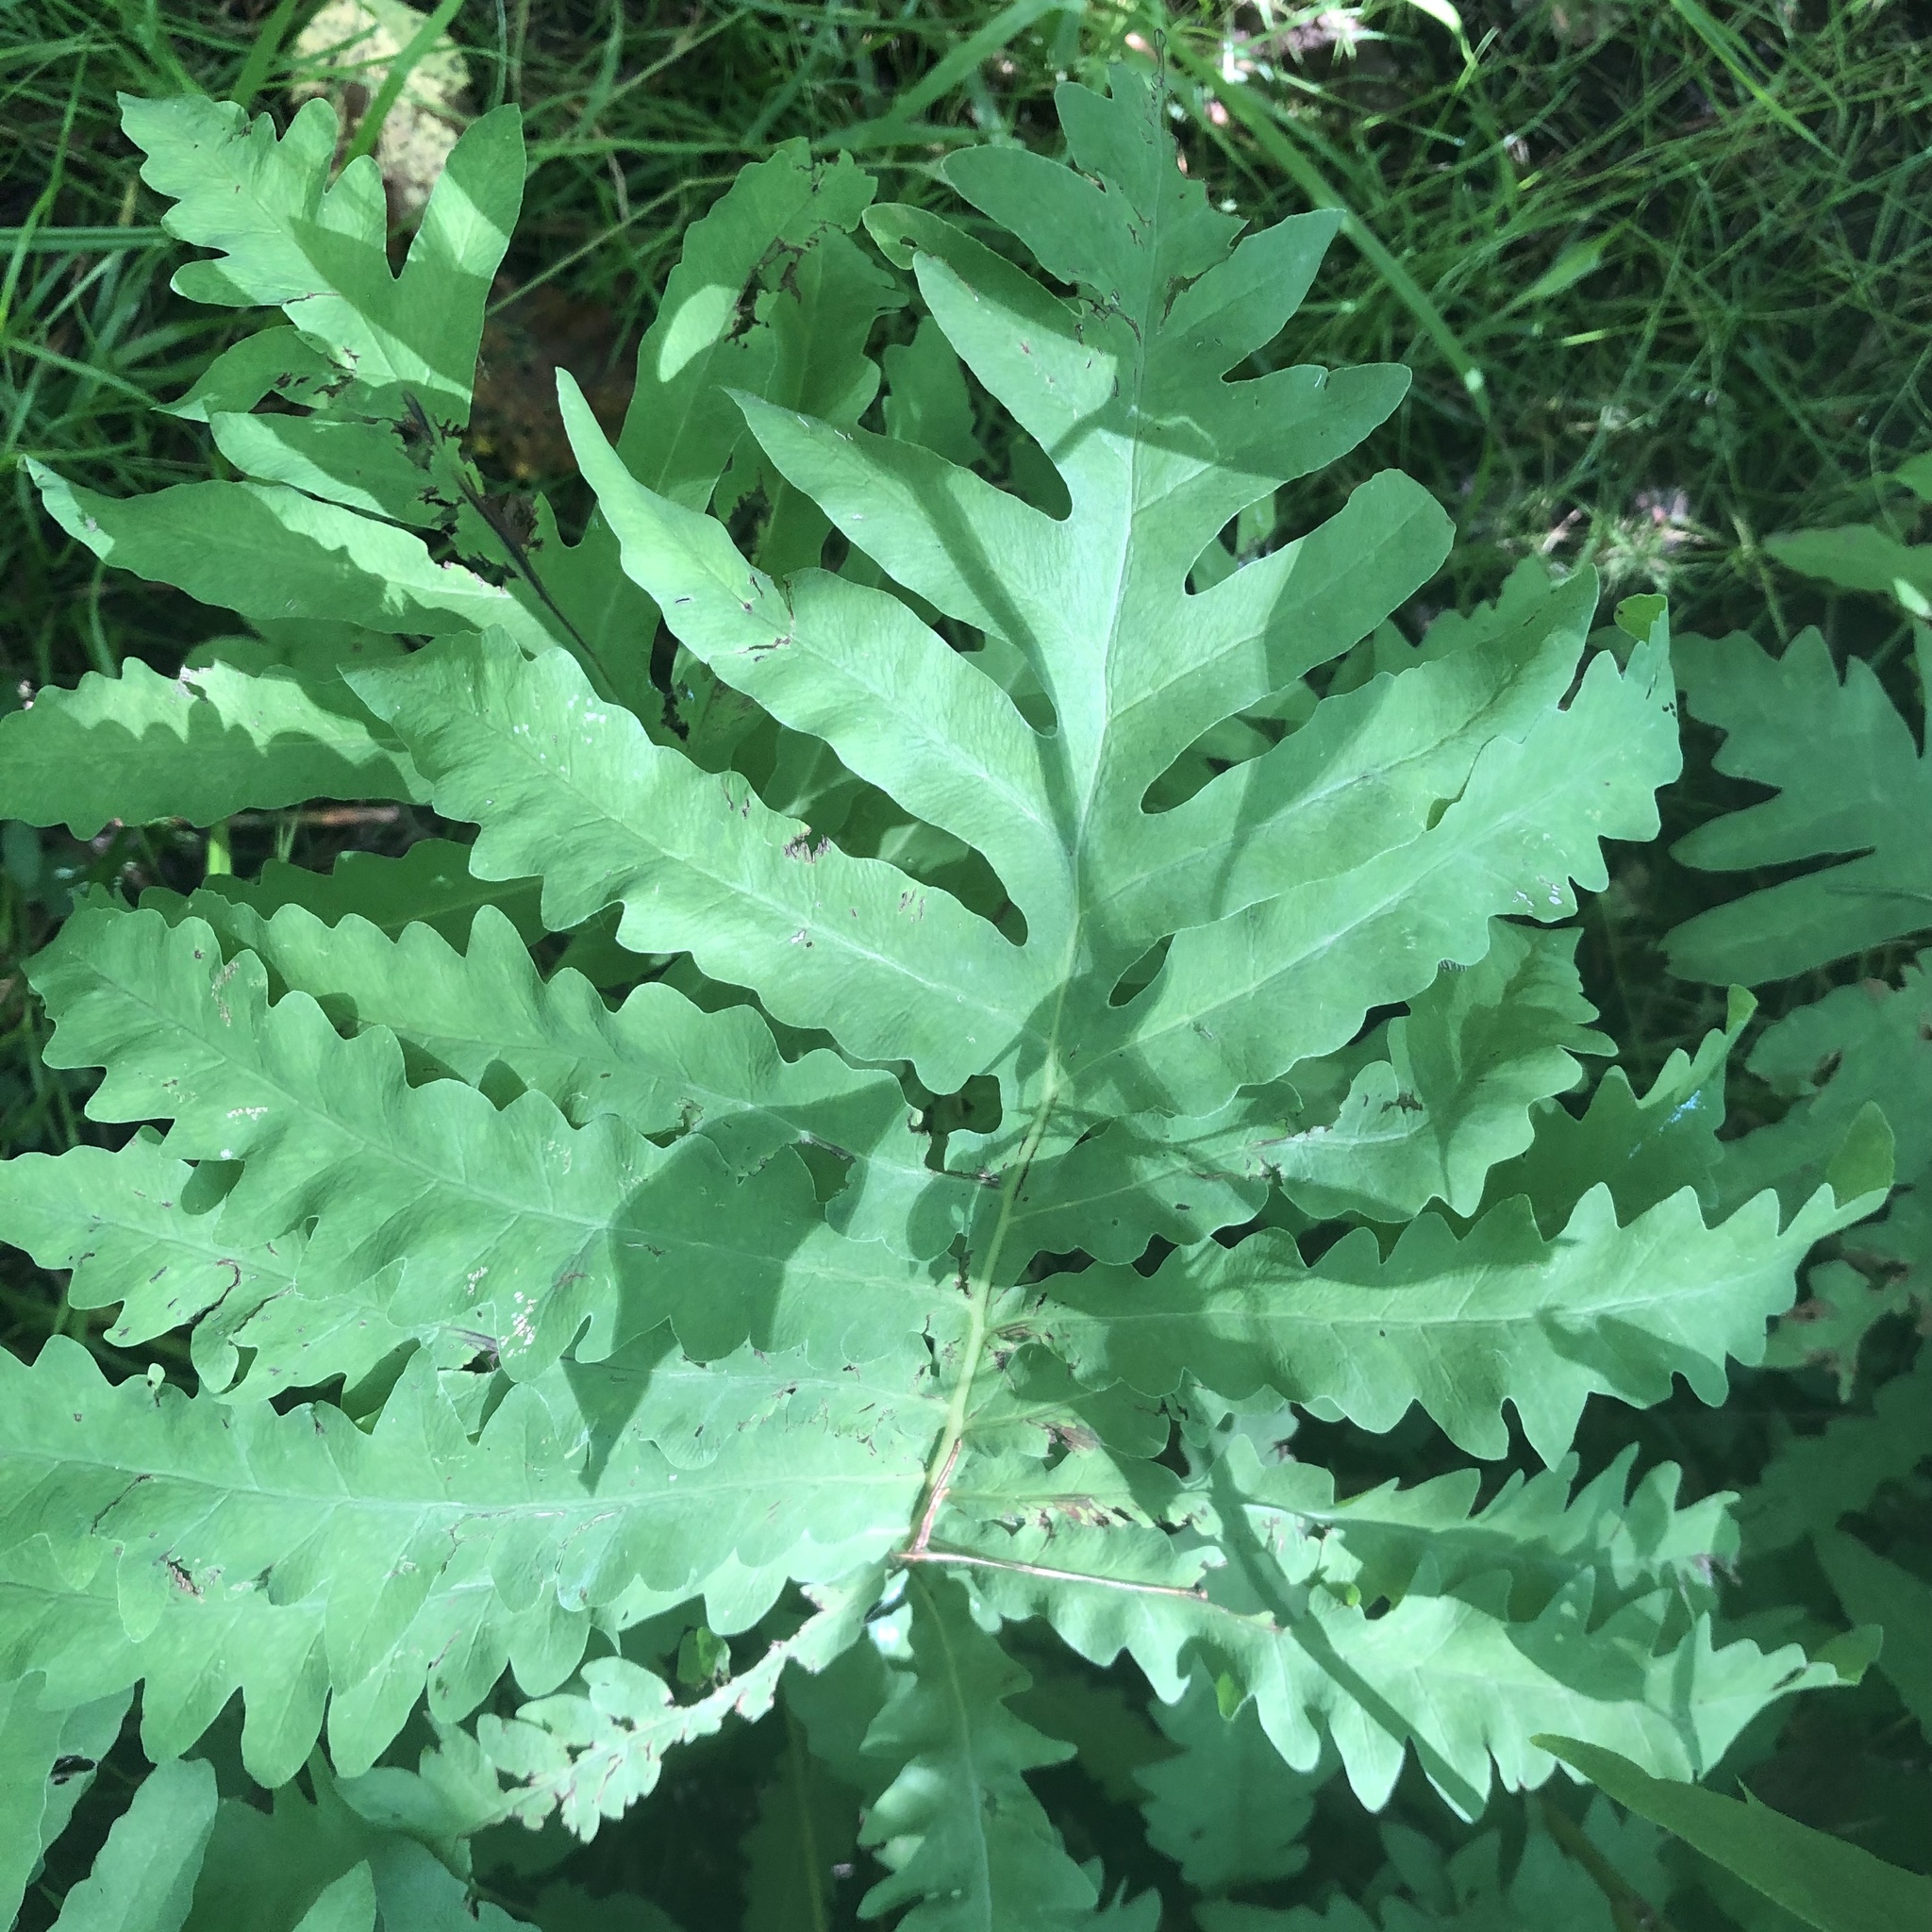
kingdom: Plantae
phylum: Tracheophyta
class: Polypodiopsida
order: Polypodiales
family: Onocleaceae
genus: Onoclea
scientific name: Onoclea sensibilis
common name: Sensitive fern
